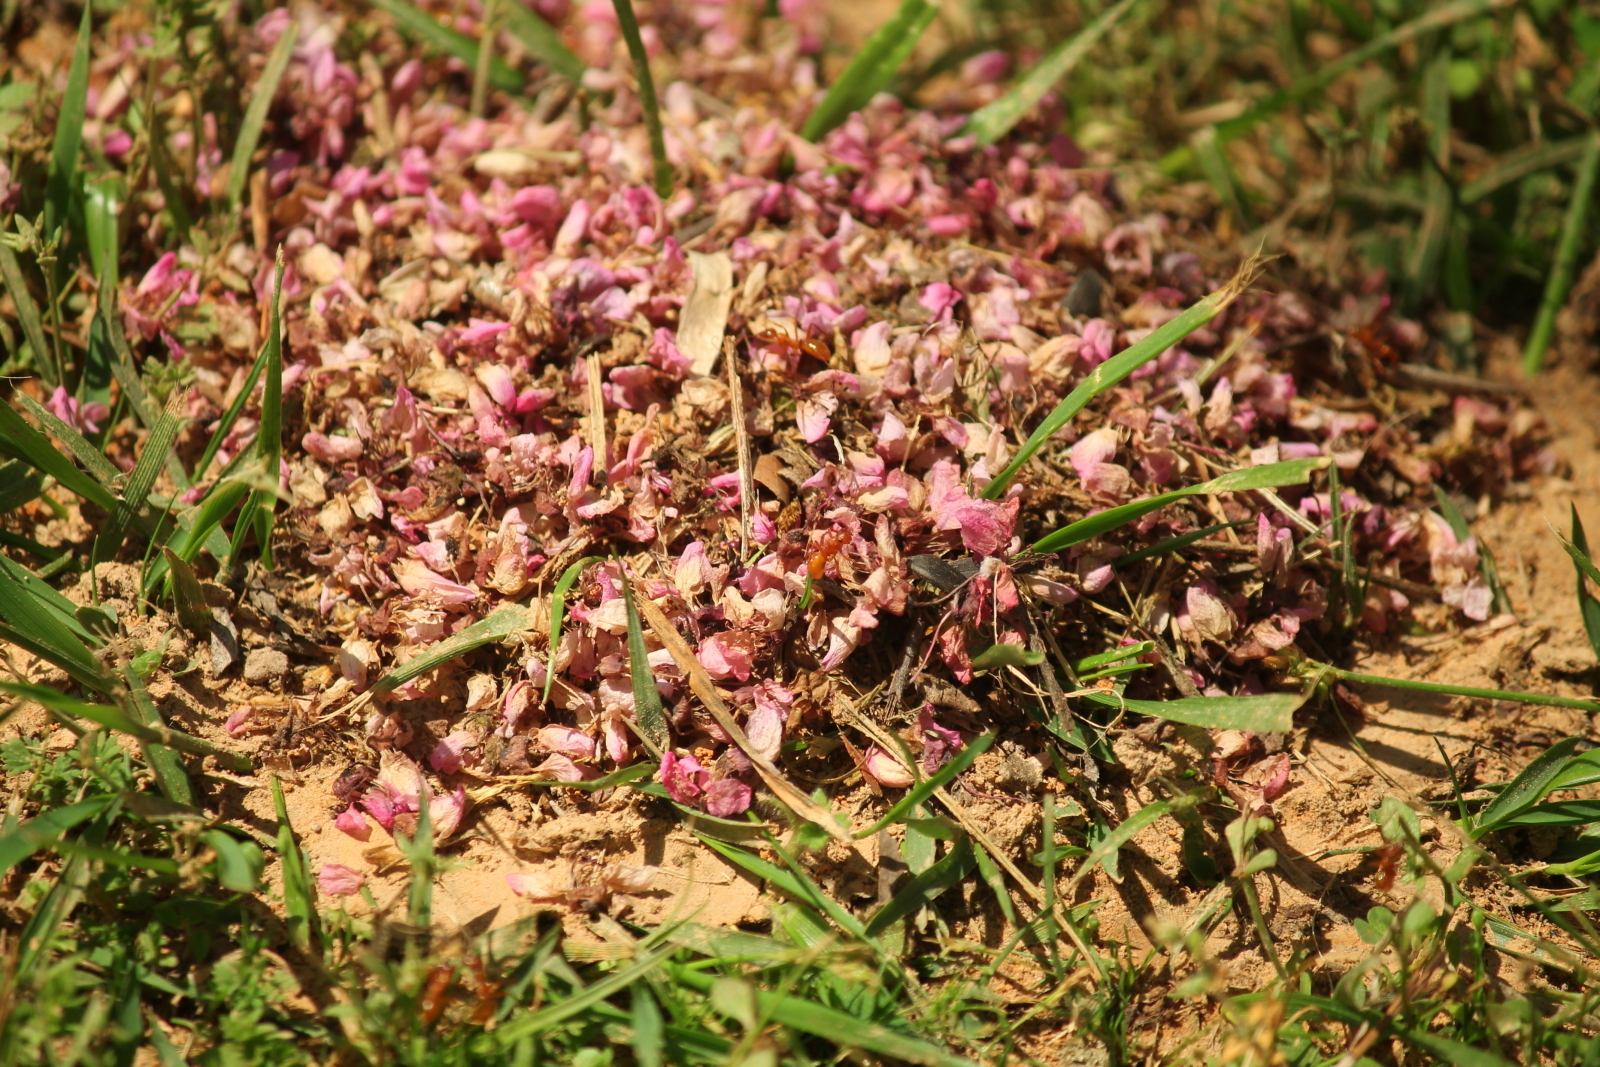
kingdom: Animalia
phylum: Arthropoda
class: Insecta
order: Hymenoptera
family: Formicidae
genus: Formica
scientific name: Formica pallidefulva
